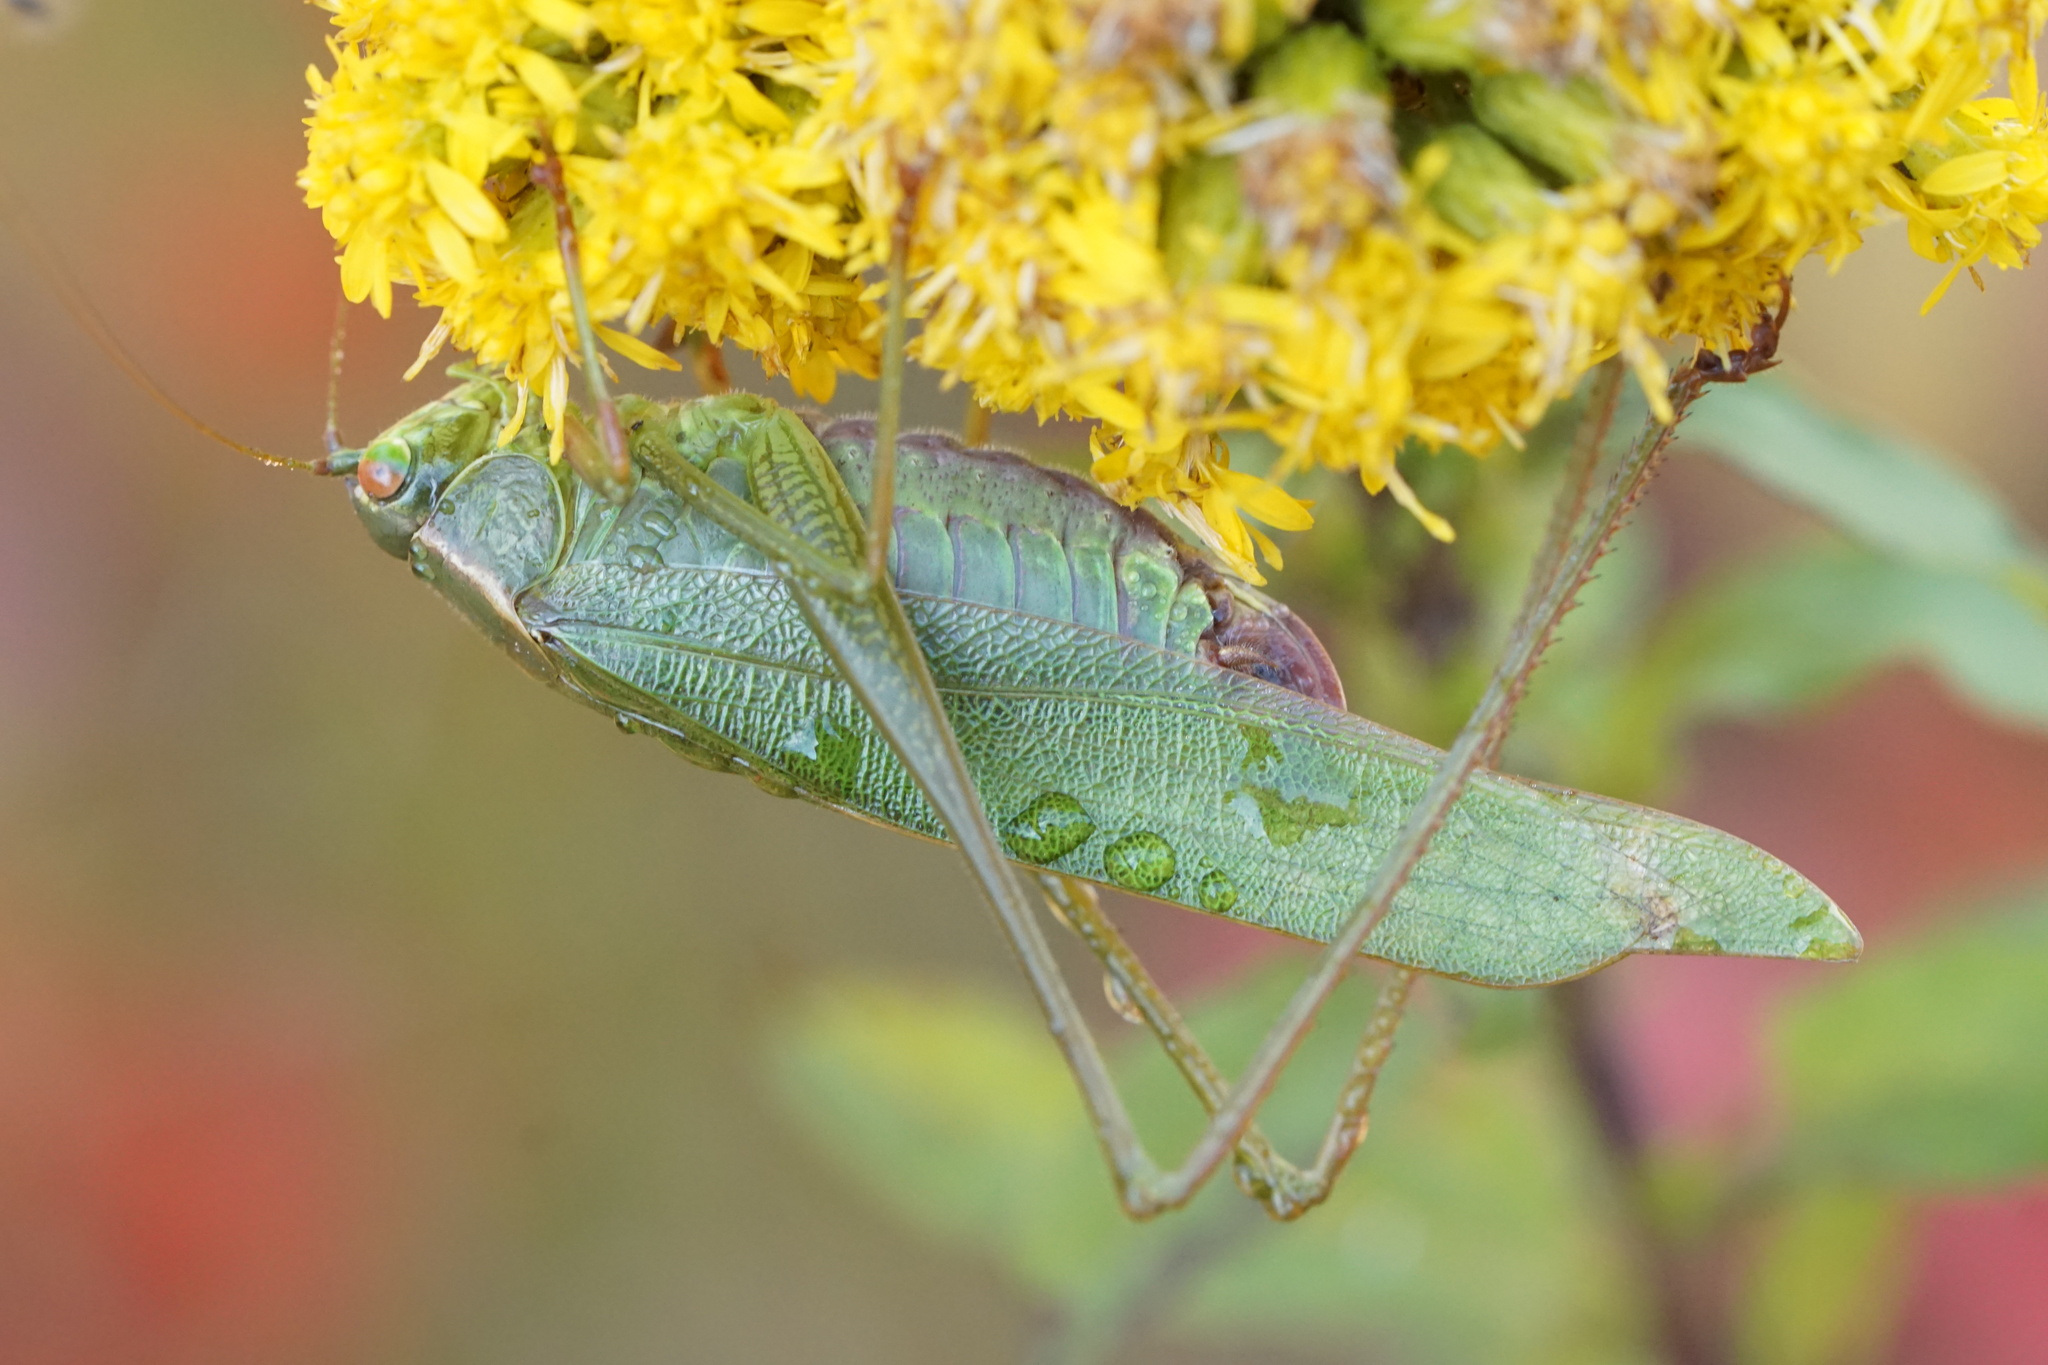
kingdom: Animalia
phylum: Arthropoda
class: Insecta
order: Orthoptera
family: Tettigoniidae
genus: Scudderia
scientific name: Scudderia furcata
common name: Fork-tailed bush katydid
